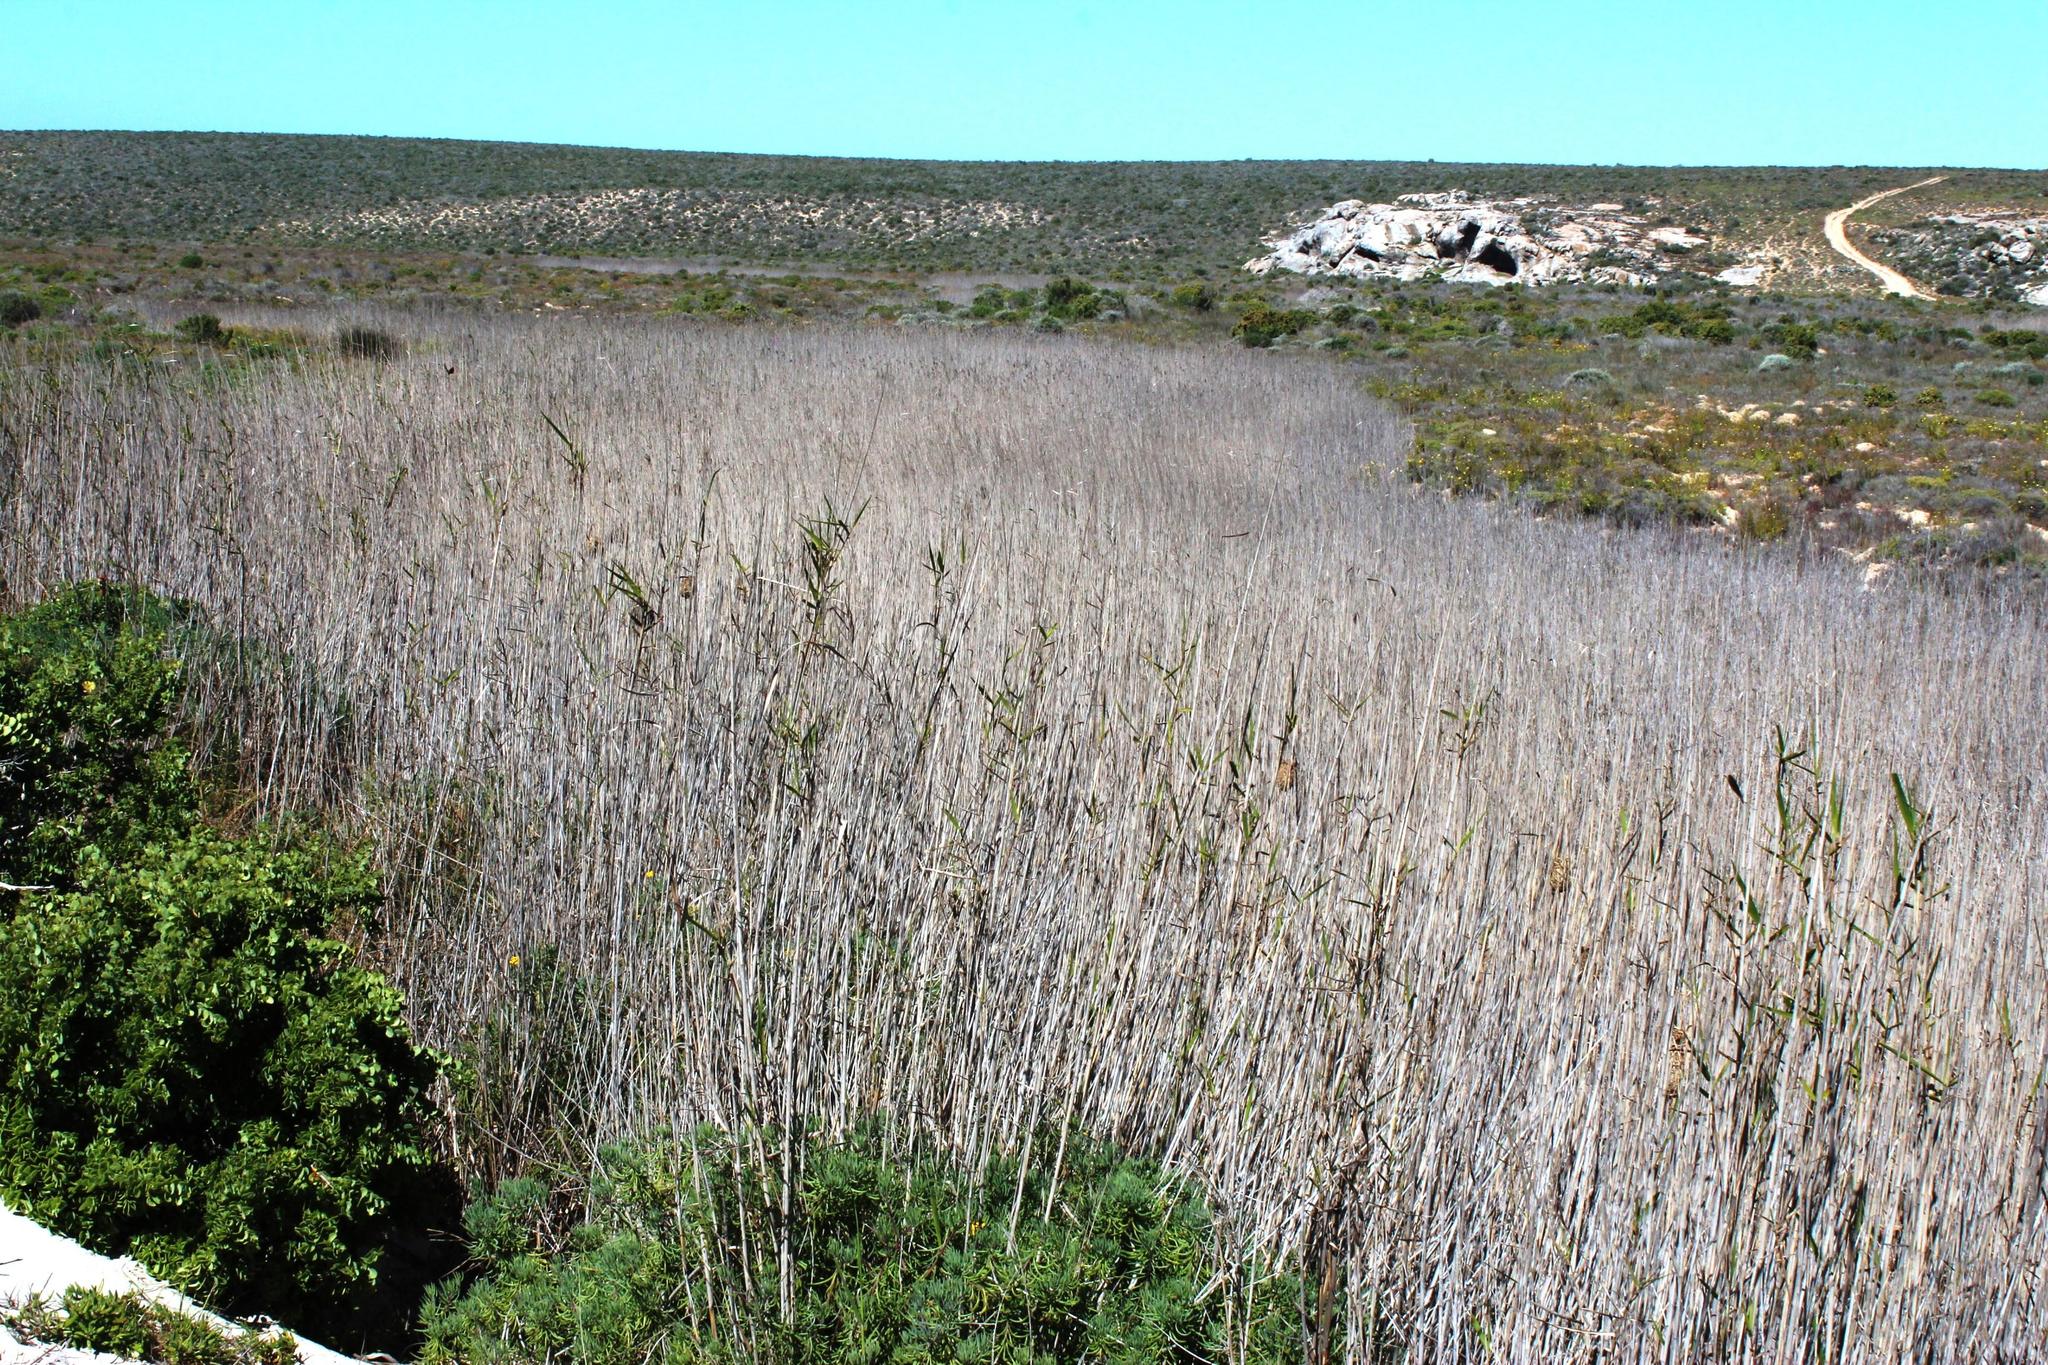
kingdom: Plantae
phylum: Tracheophyta
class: Liliopsida
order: Poales
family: Poaceae
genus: Phragmites
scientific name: Phragmites australis
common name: Common reed
